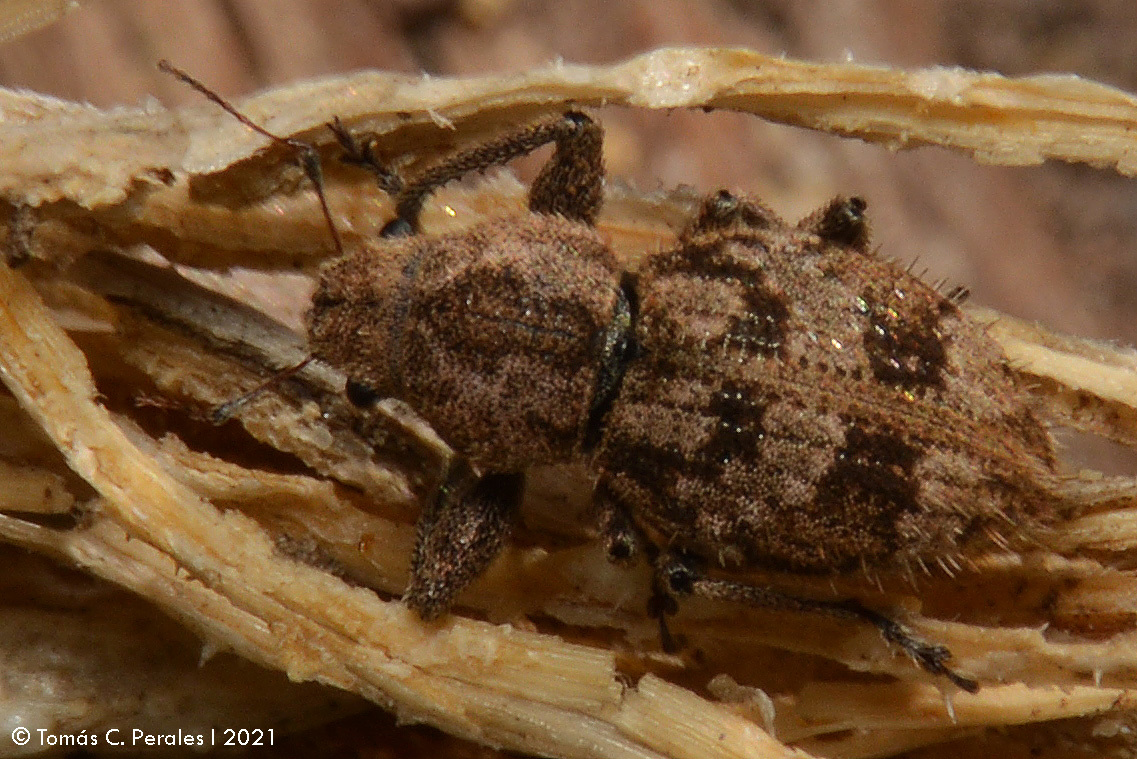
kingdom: Animalia
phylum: Arthropoda
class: Insecta
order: Coleoptera
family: Curculionidae
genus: Pantomorus
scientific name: Pantomorus
